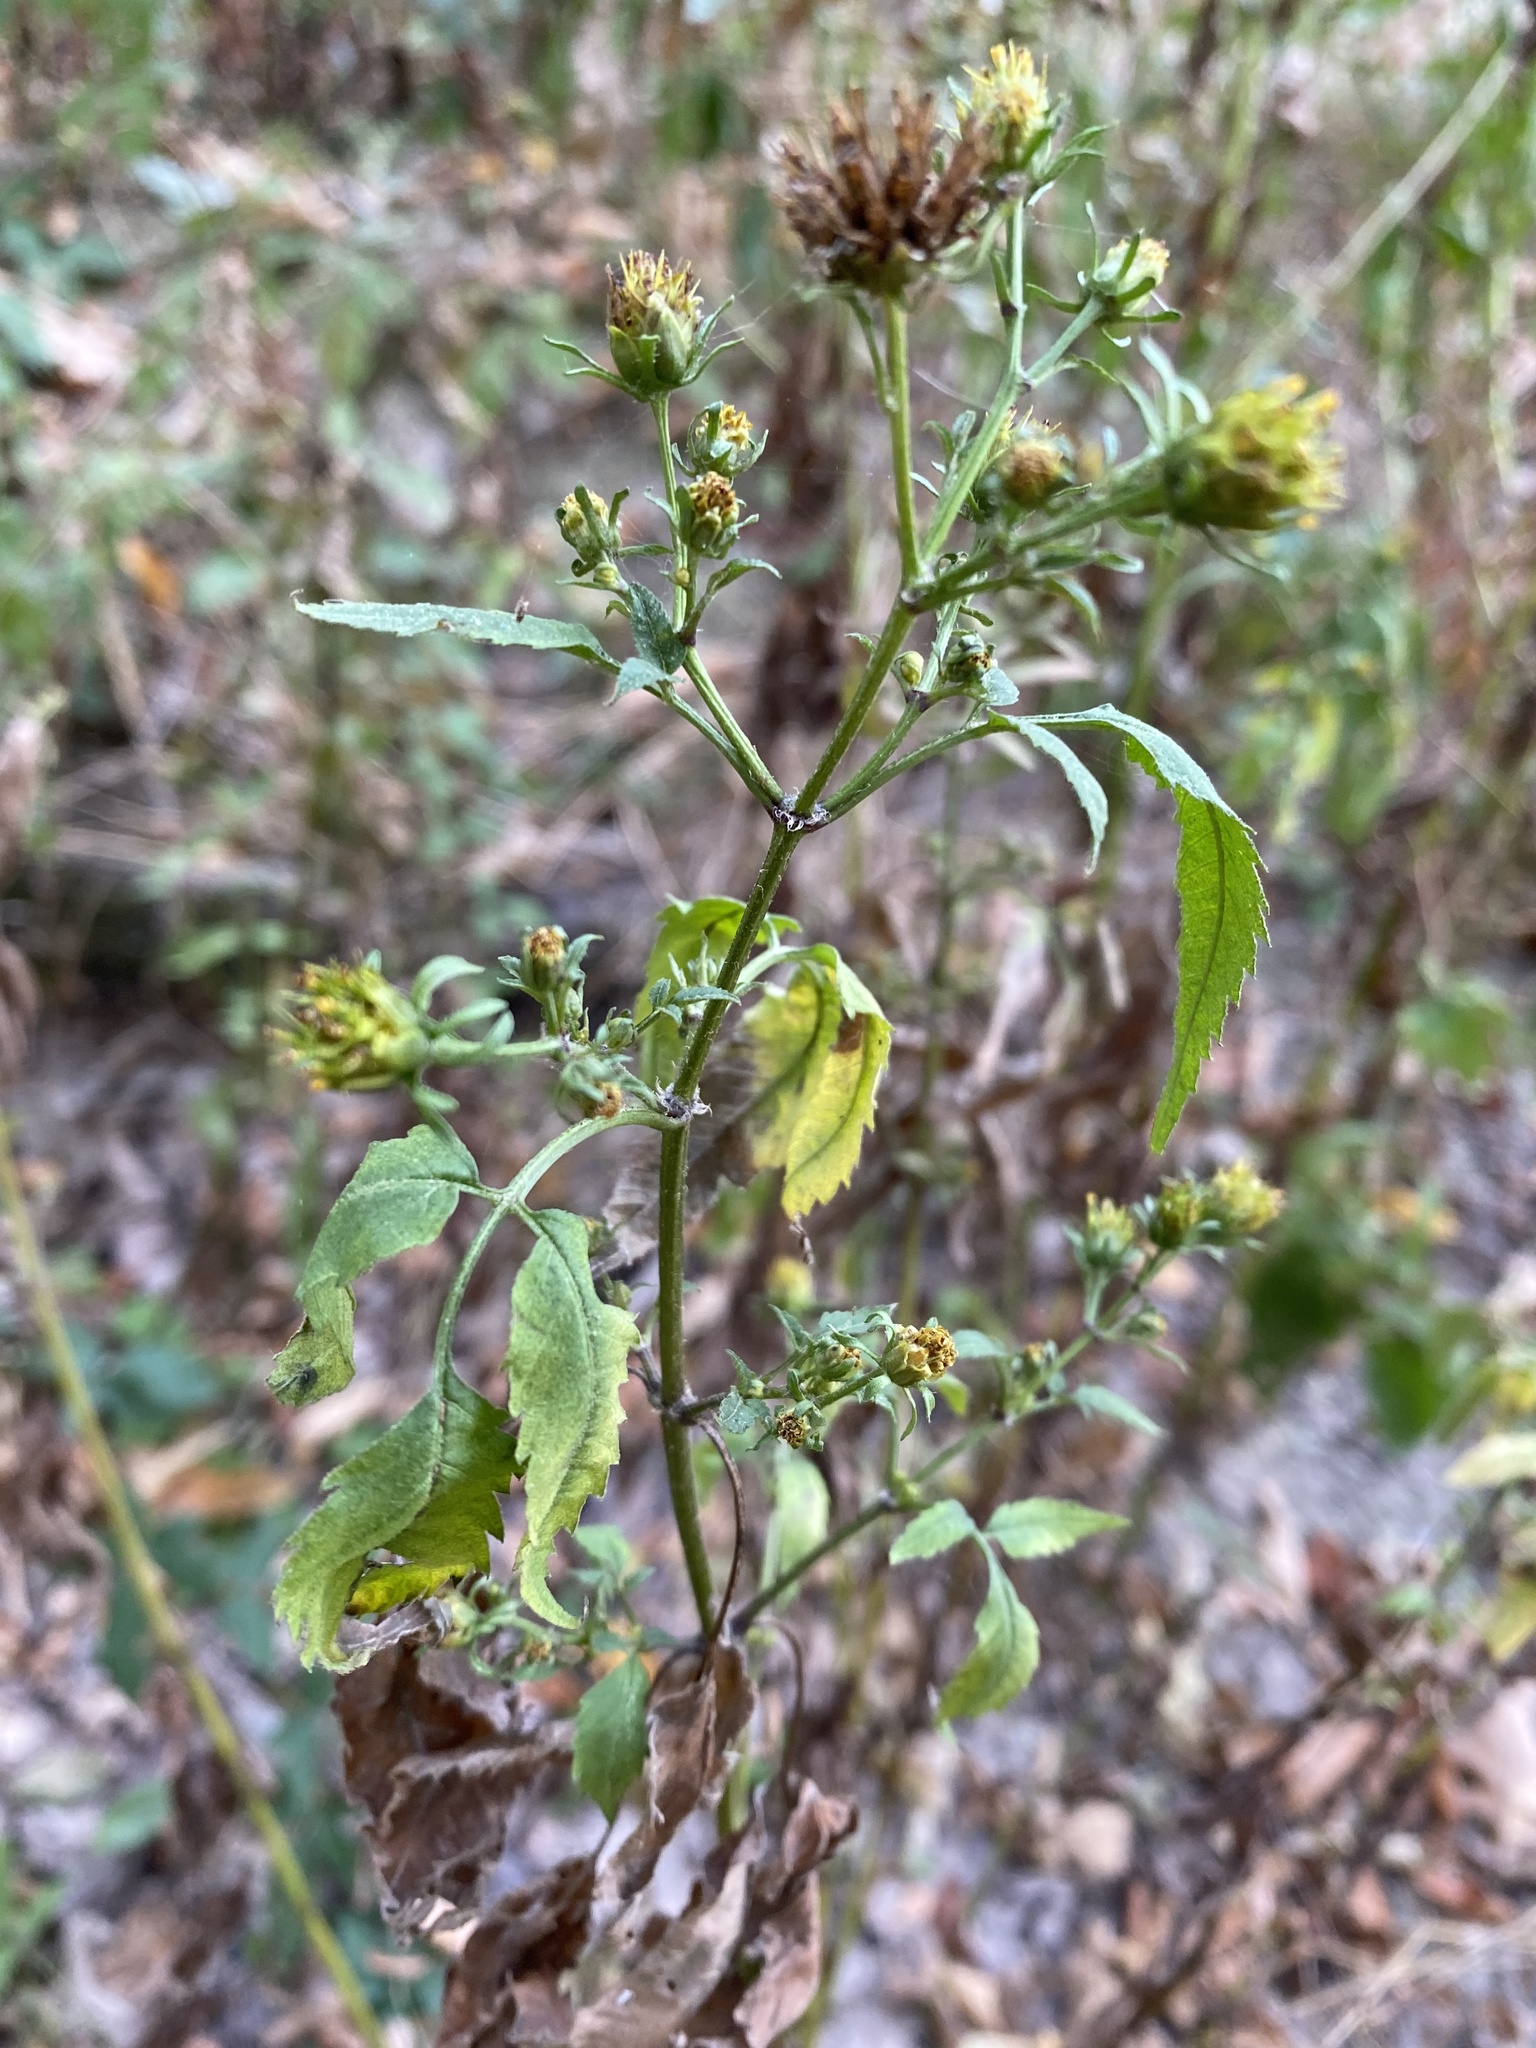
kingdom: Plantae
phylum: Tracheophyta
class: Magnoliopsida
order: Asterales
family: Asteraceae
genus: Bidens
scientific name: Bidens frondosa
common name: Beggarticks
